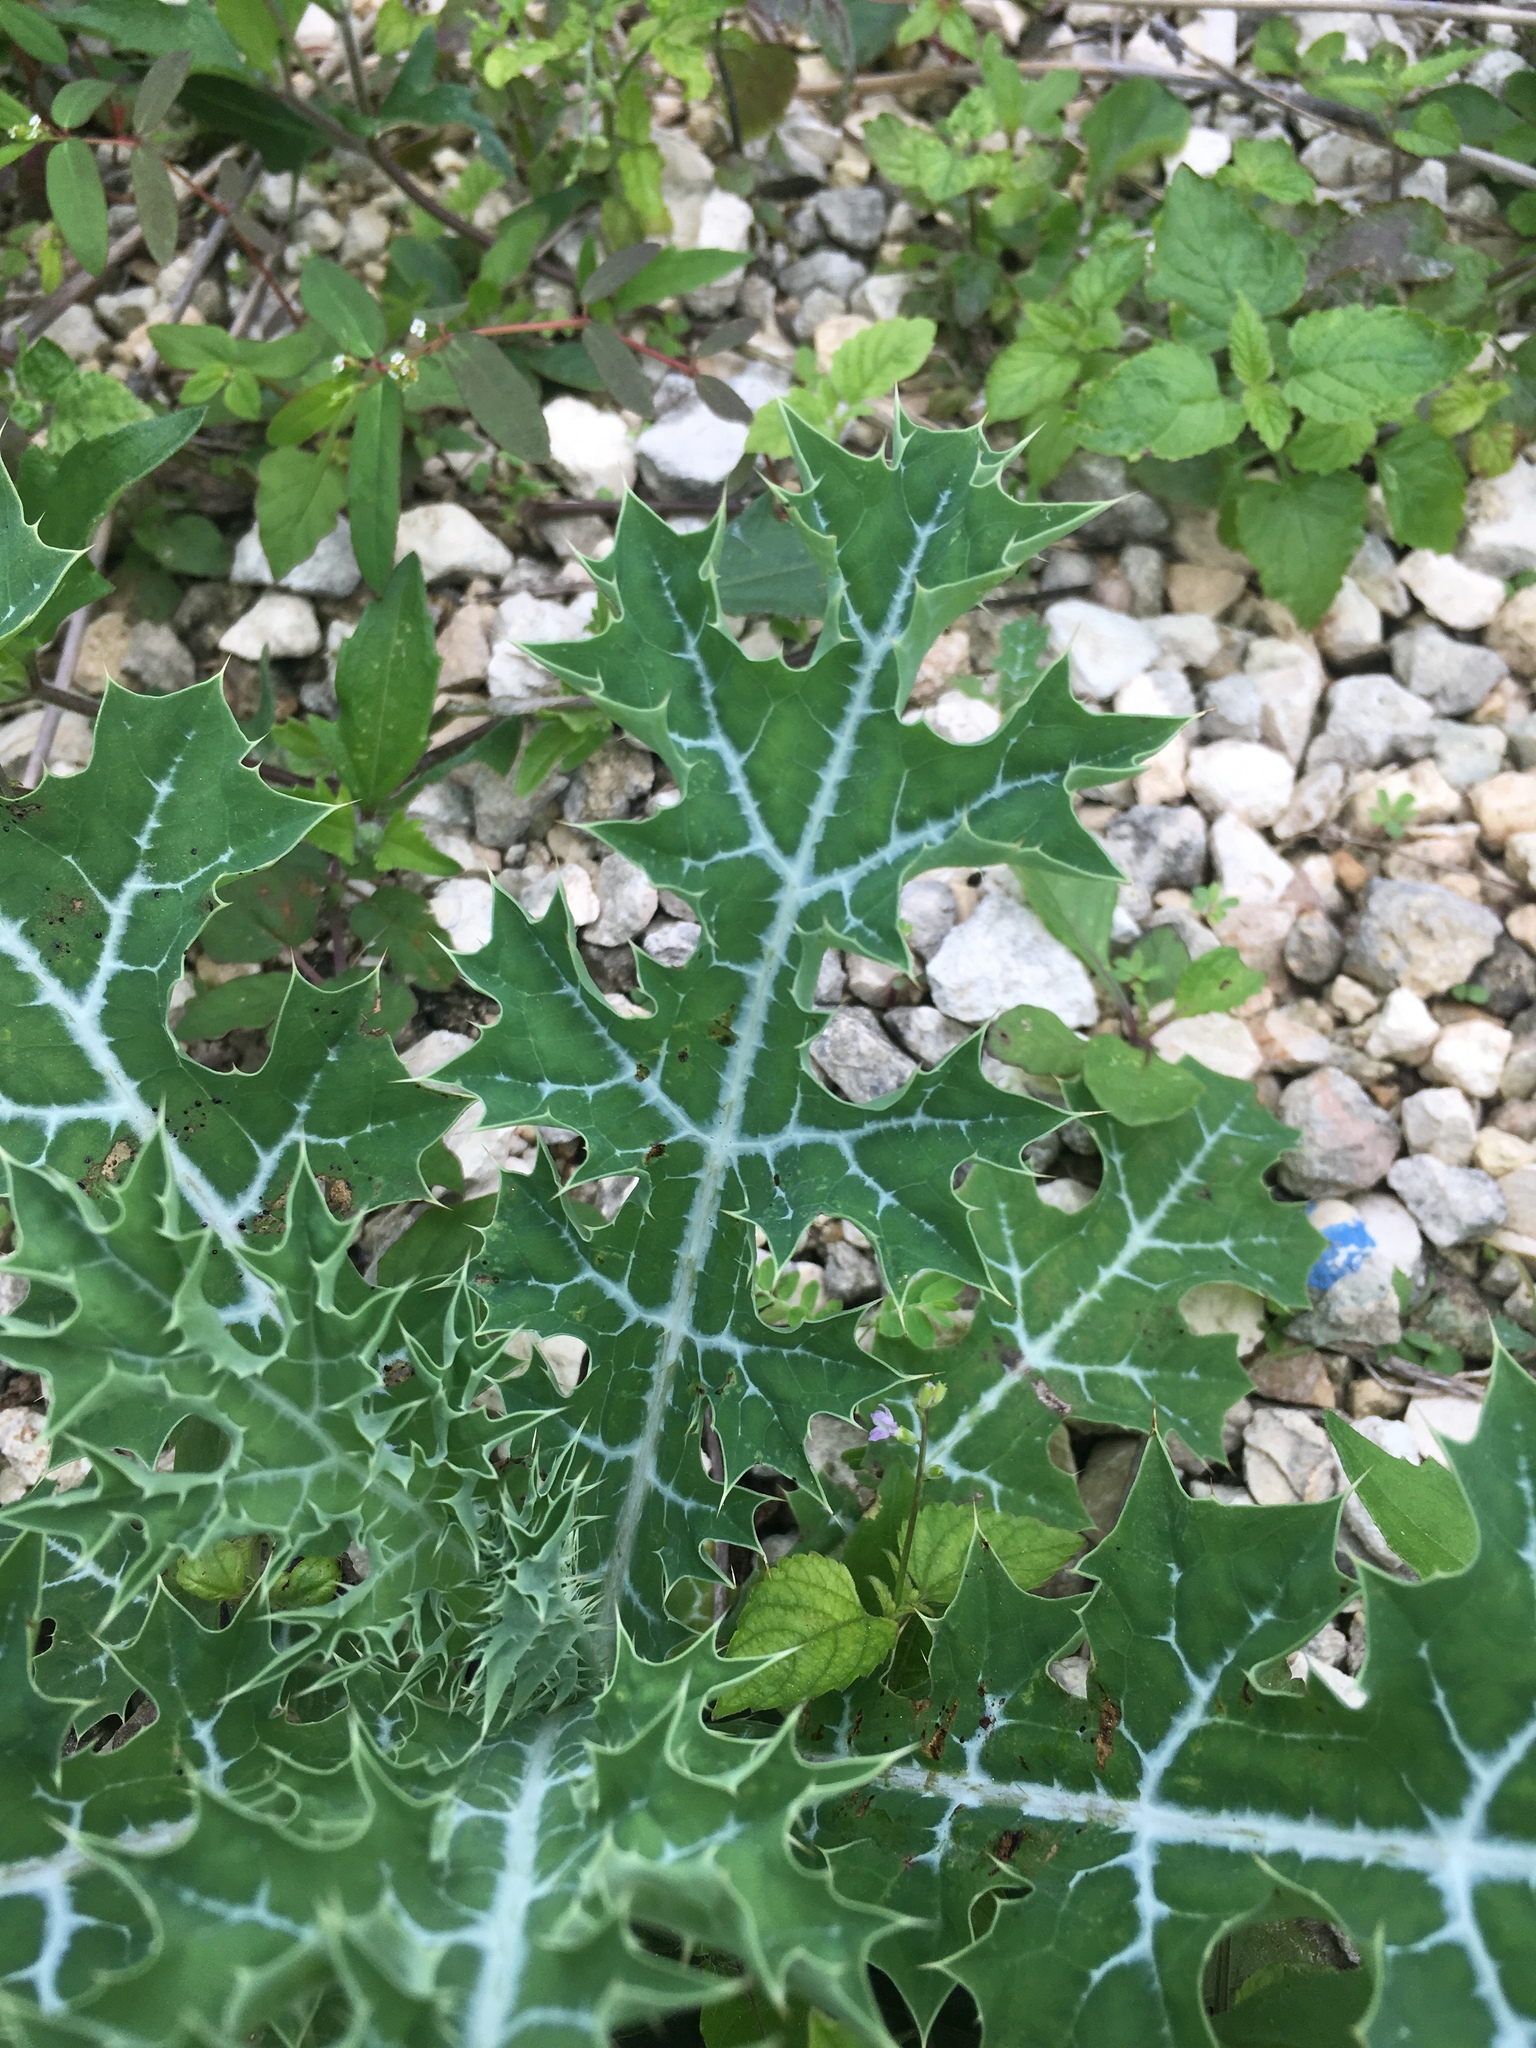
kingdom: Plantae
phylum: Tracheophyta
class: Magnoliopsida
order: Ranunculales
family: Papaveraceae
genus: Argemone
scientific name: Argemone mexicana
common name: Mexican poppy
